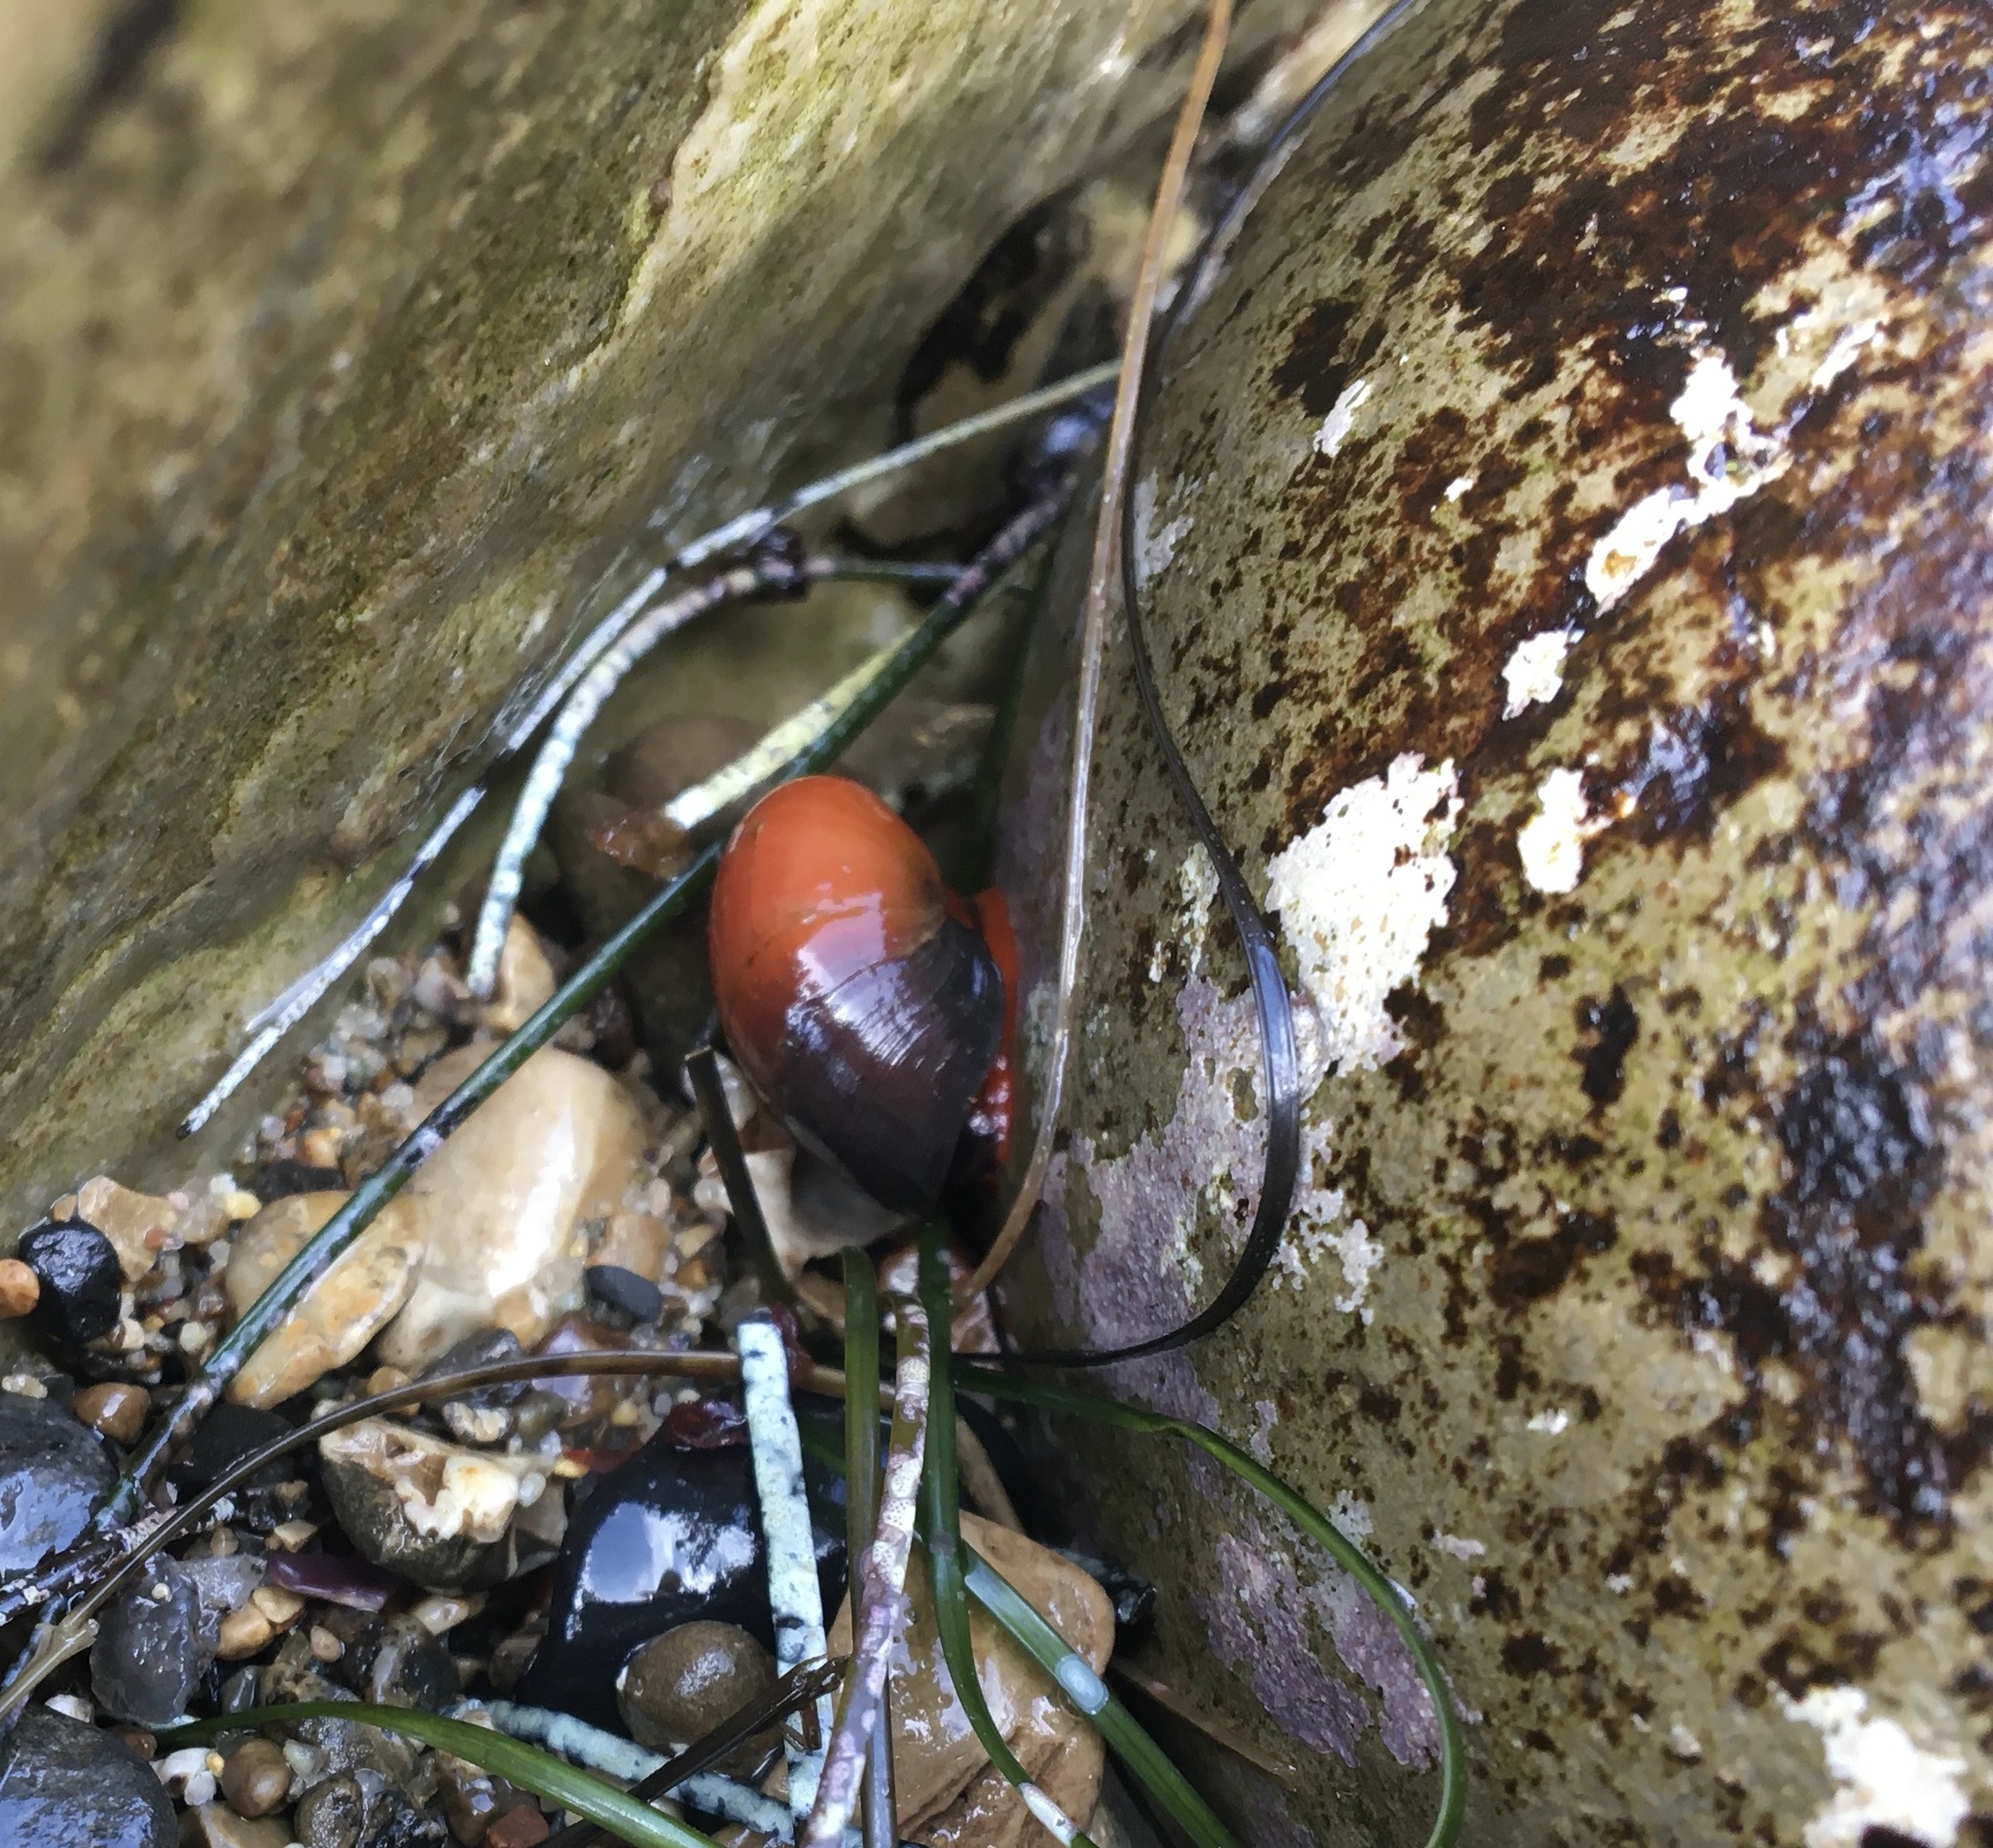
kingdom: Animalia
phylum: Mollusca
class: Gastropoda
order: Trochida
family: Tegulidae
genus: Norrisia
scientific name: Norrisia norrisii
